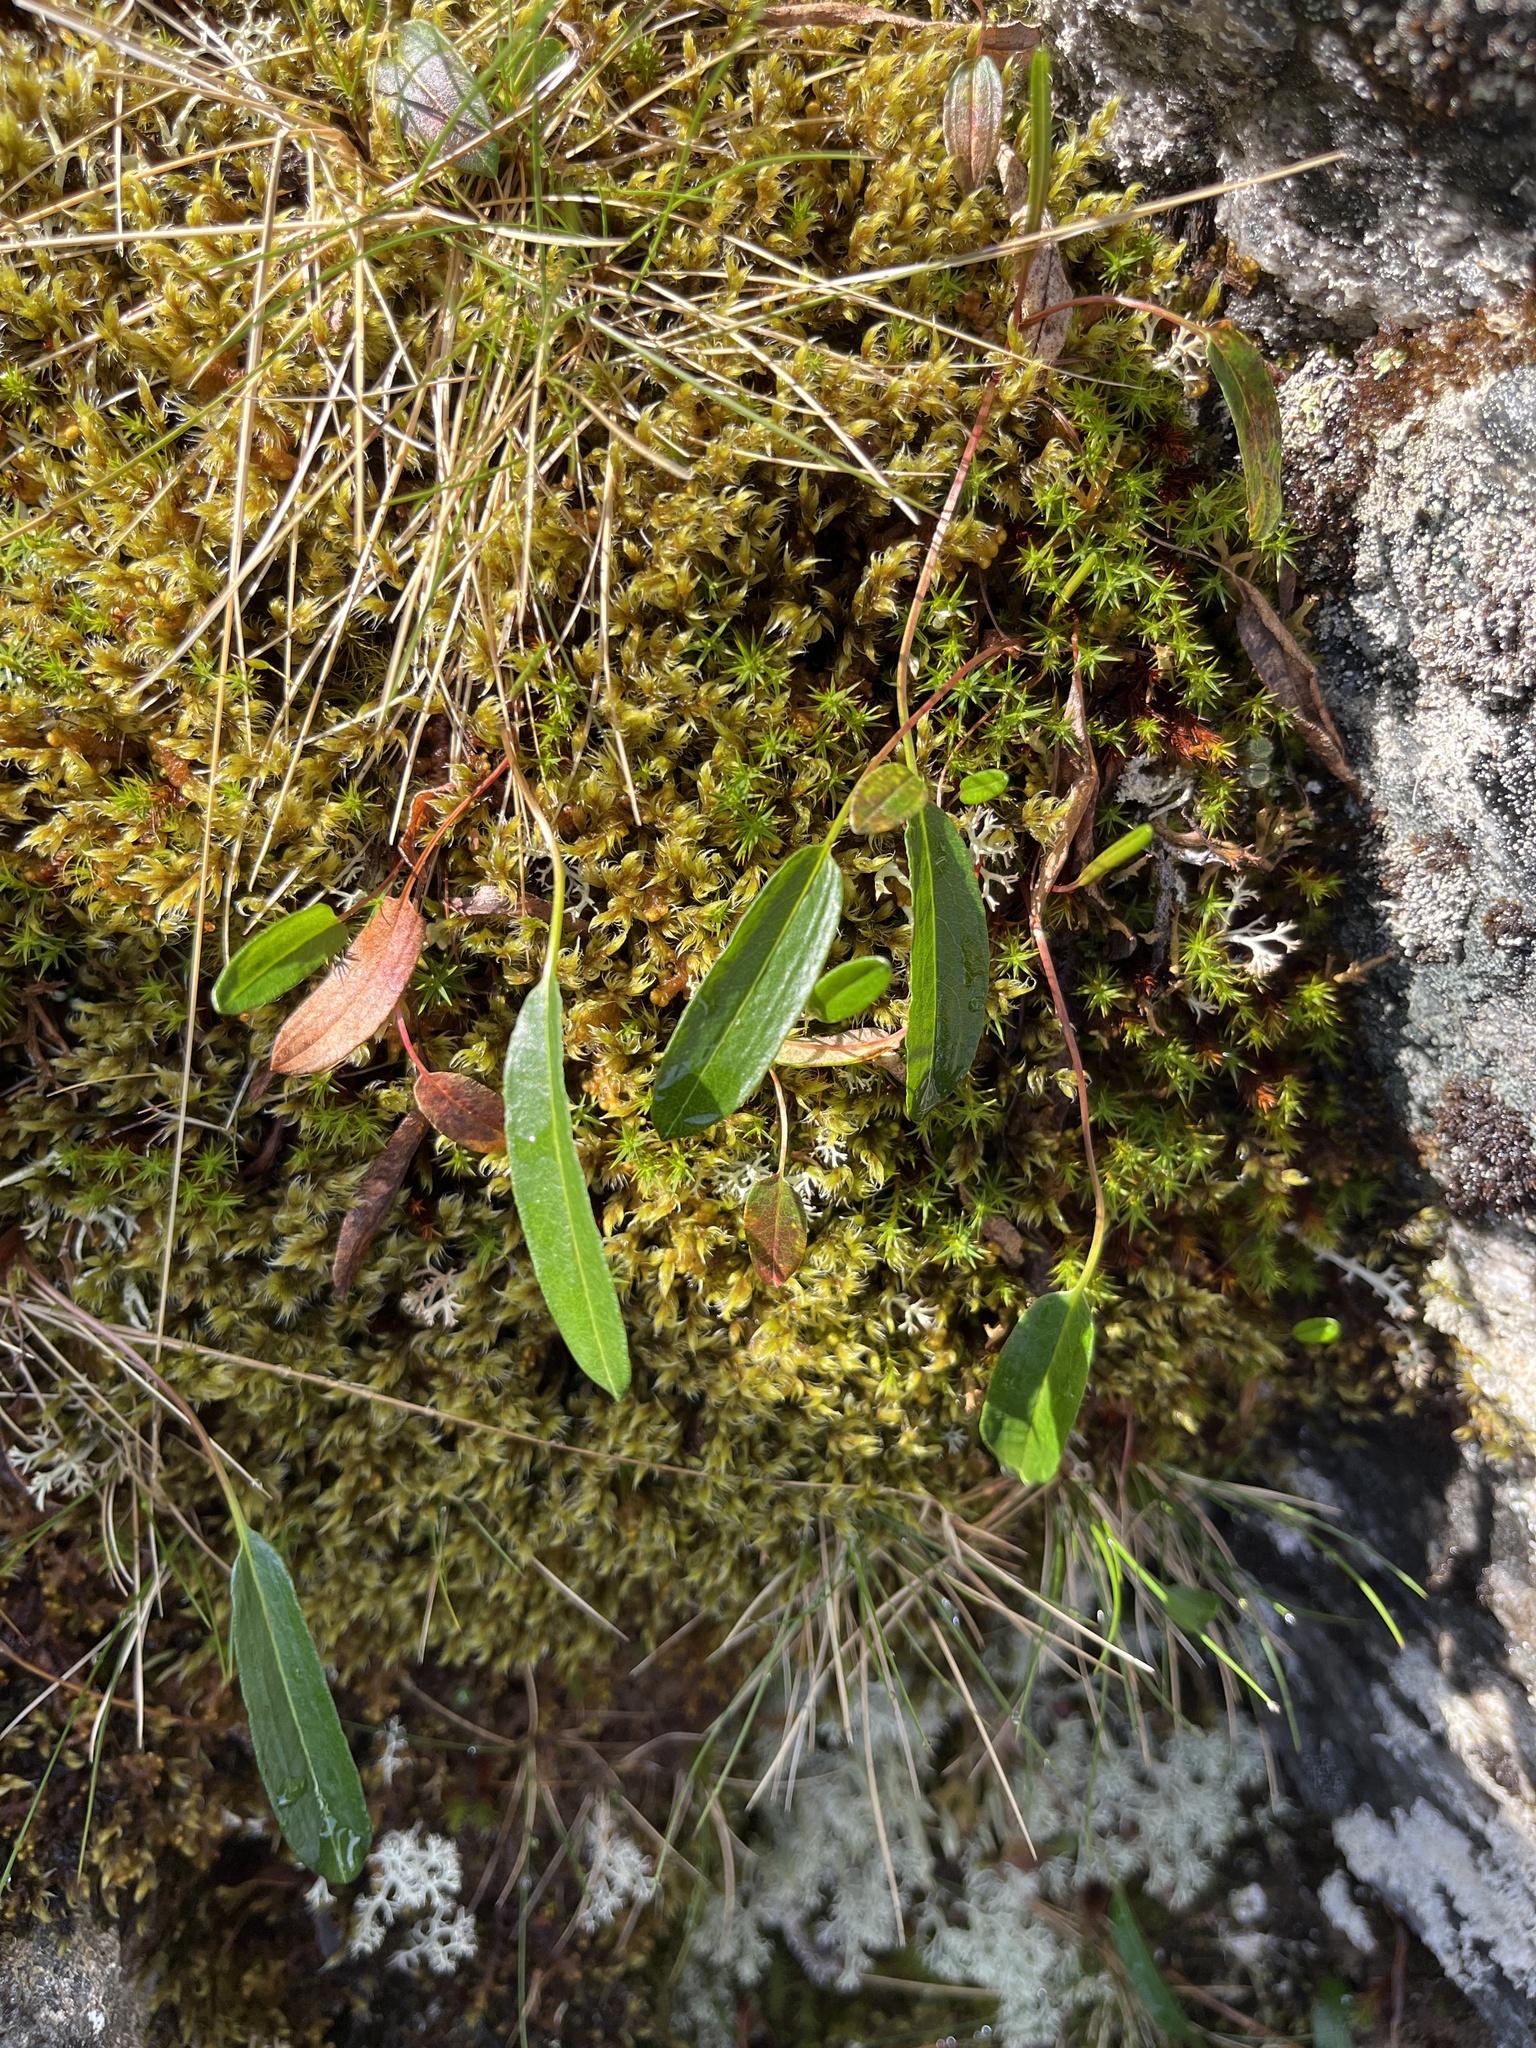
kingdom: Plantae
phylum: Tracheophyta
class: Magnoliopsida
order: Caryophyllales
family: Polygonaceae
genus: Bistorta
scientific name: Bistorta vivipara
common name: Alpine bistort
